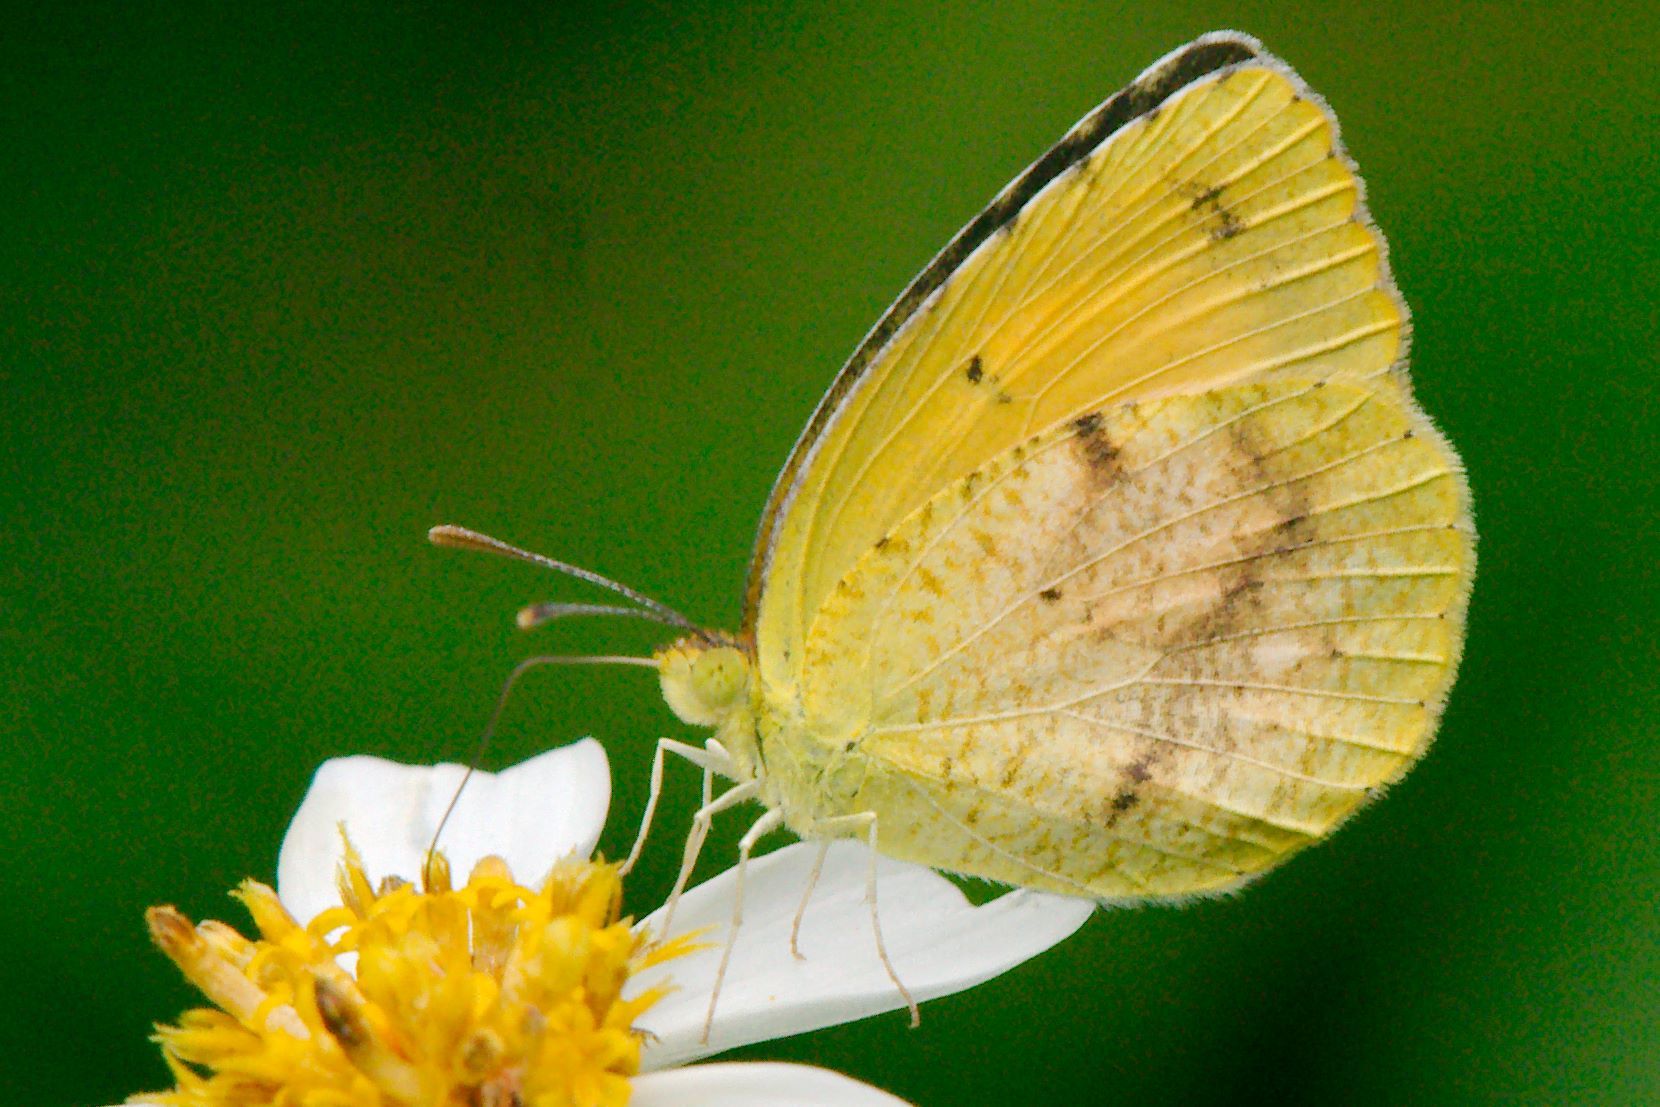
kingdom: Animalia
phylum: Arthropoda
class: Insecta
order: Lepidoptera
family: Pieridae
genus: Abaeis
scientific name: Abaeis nicippe
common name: Sleepy orange
